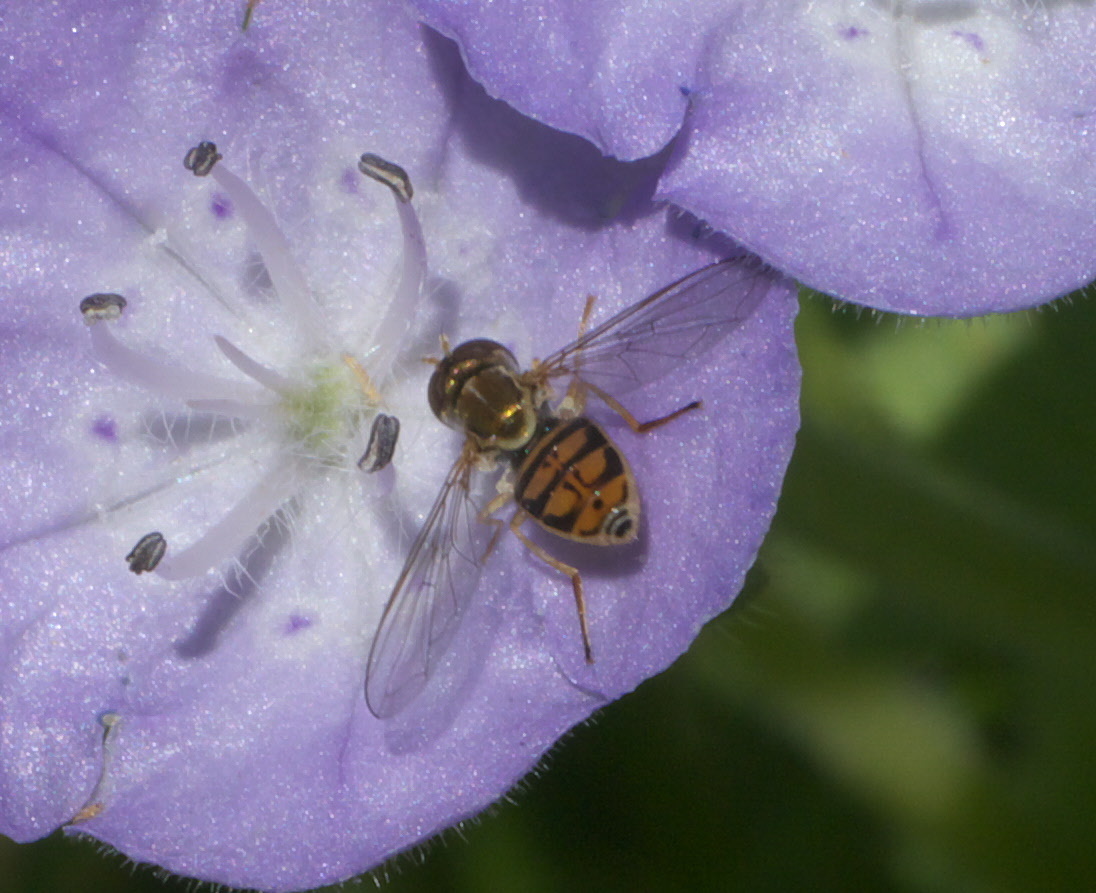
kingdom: Animalia
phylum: Arthropoda
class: Insecta
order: Diptera
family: Syrphidae
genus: Toxomerus
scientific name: Toxomerus marginatus
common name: Syrphid fly
